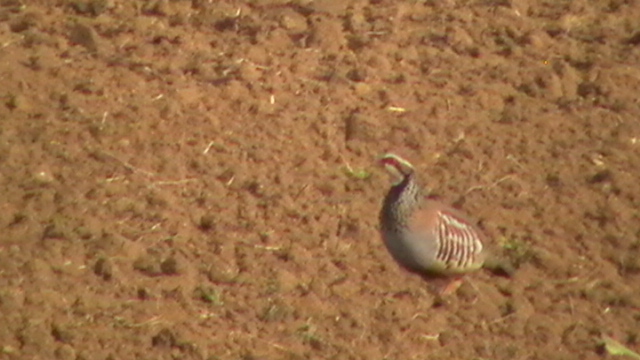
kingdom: Animalia
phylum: Chordata
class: Aves
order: Galliformes
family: Phasianidae
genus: Alectoris
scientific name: Alectoris rufa
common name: Red-legged partridge
